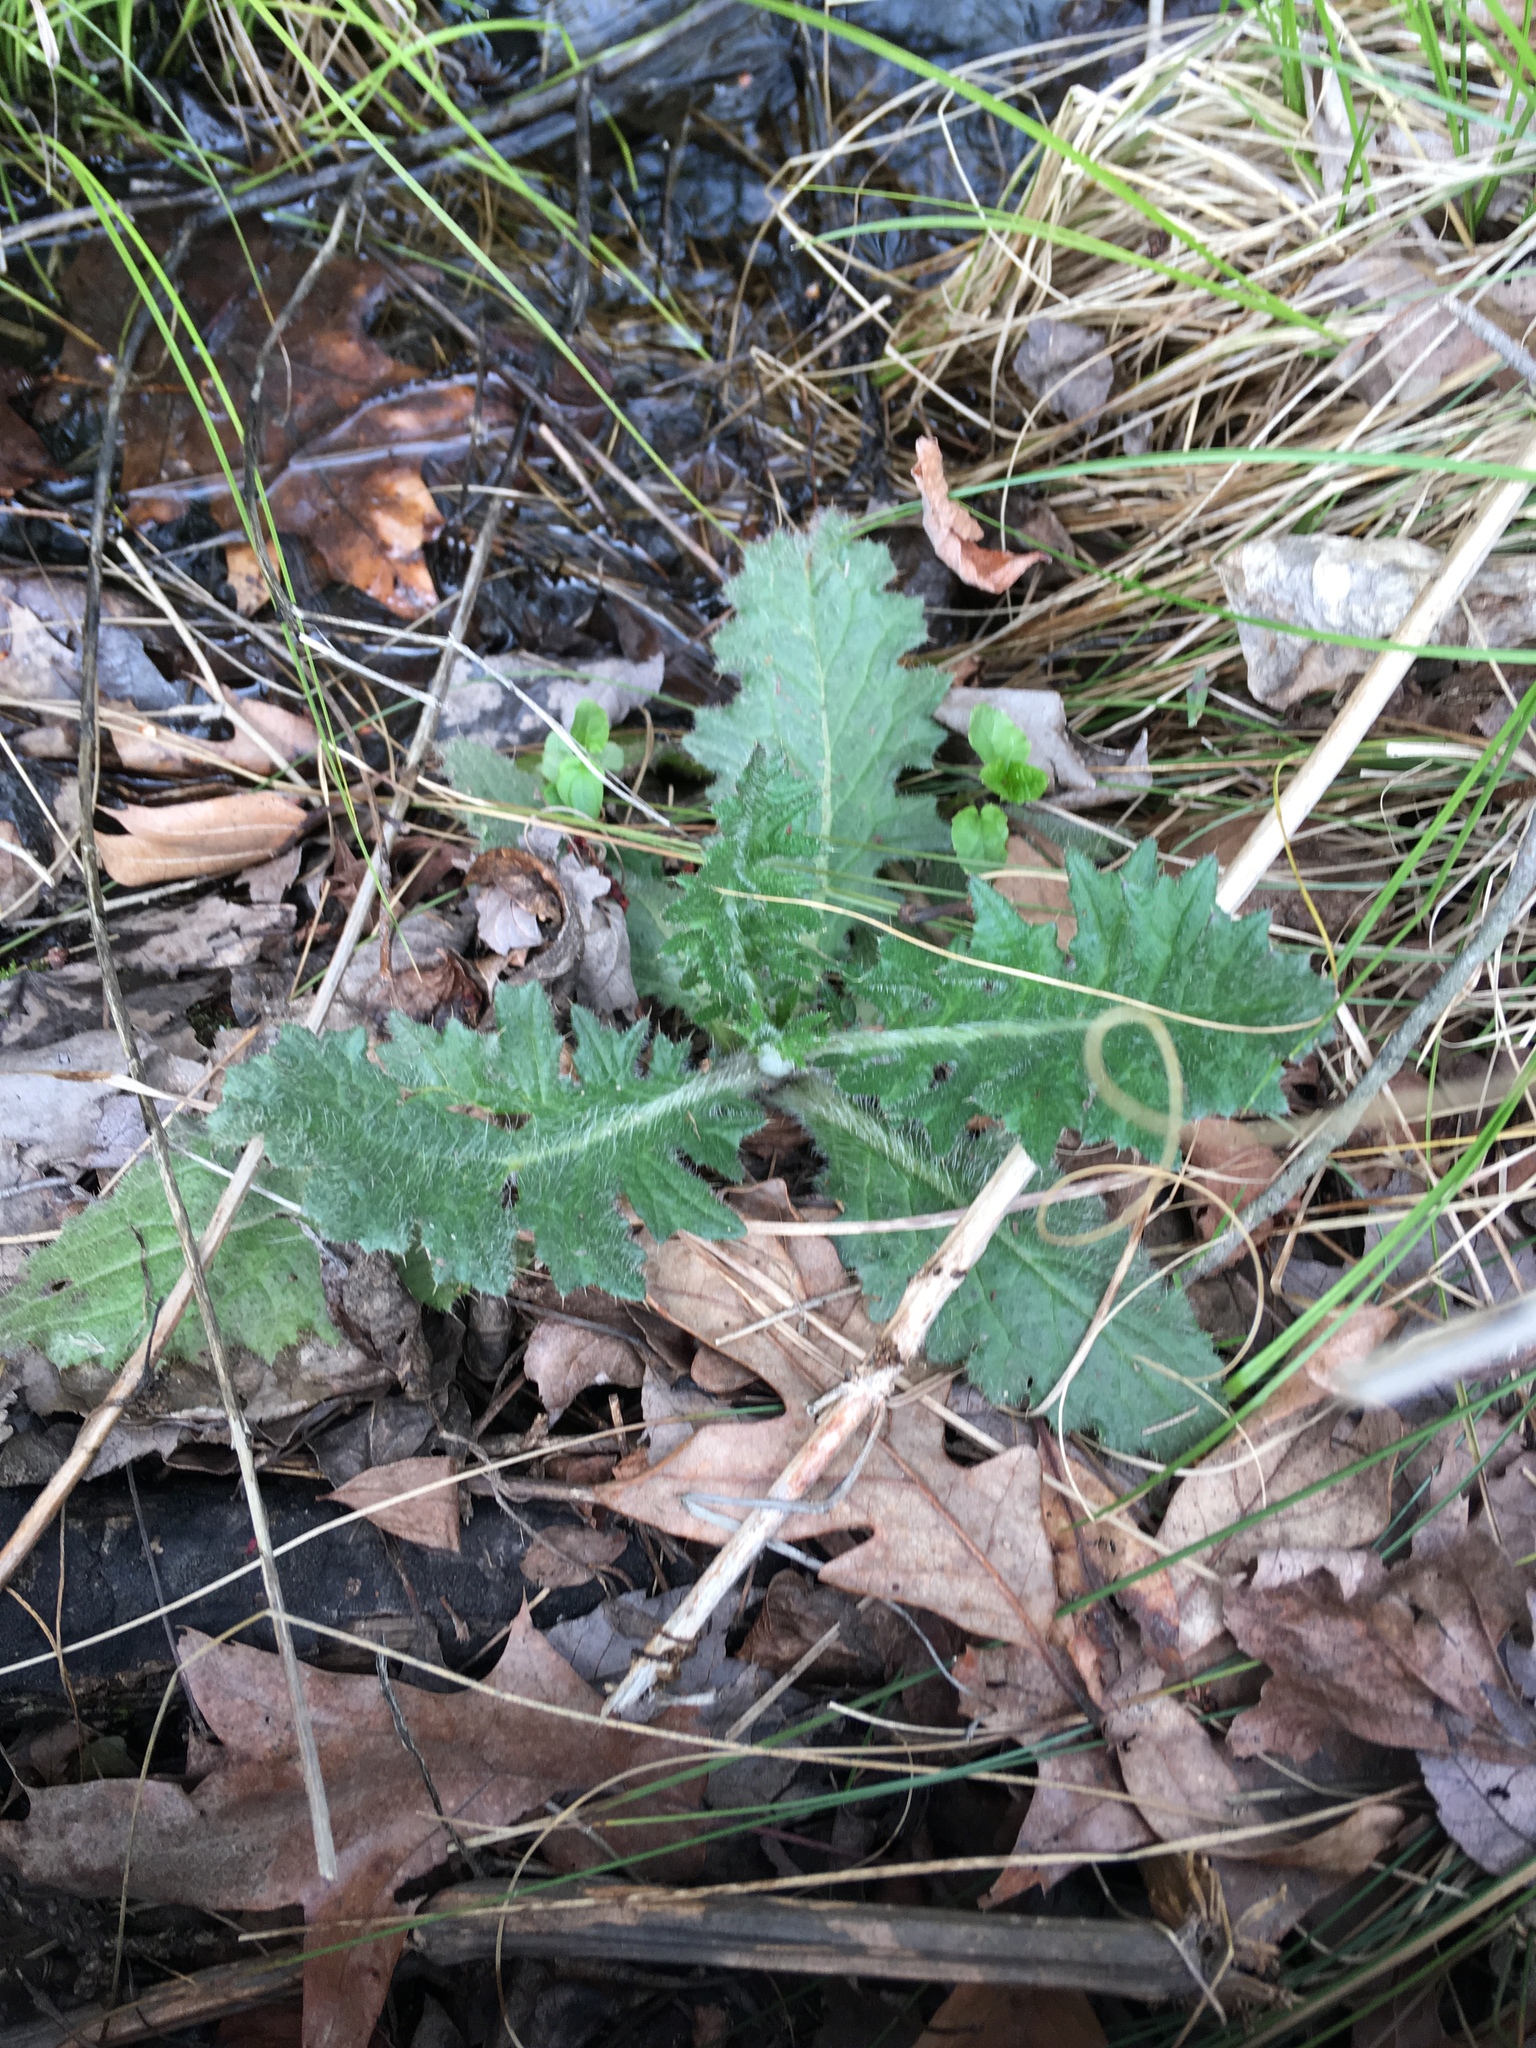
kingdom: Plantae
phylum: Tracheophyta
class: Magnoliopsida
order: Asterales
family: Asteraceae
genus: Cirsium
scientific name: Cirsium vulgare
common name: Bull thistle
